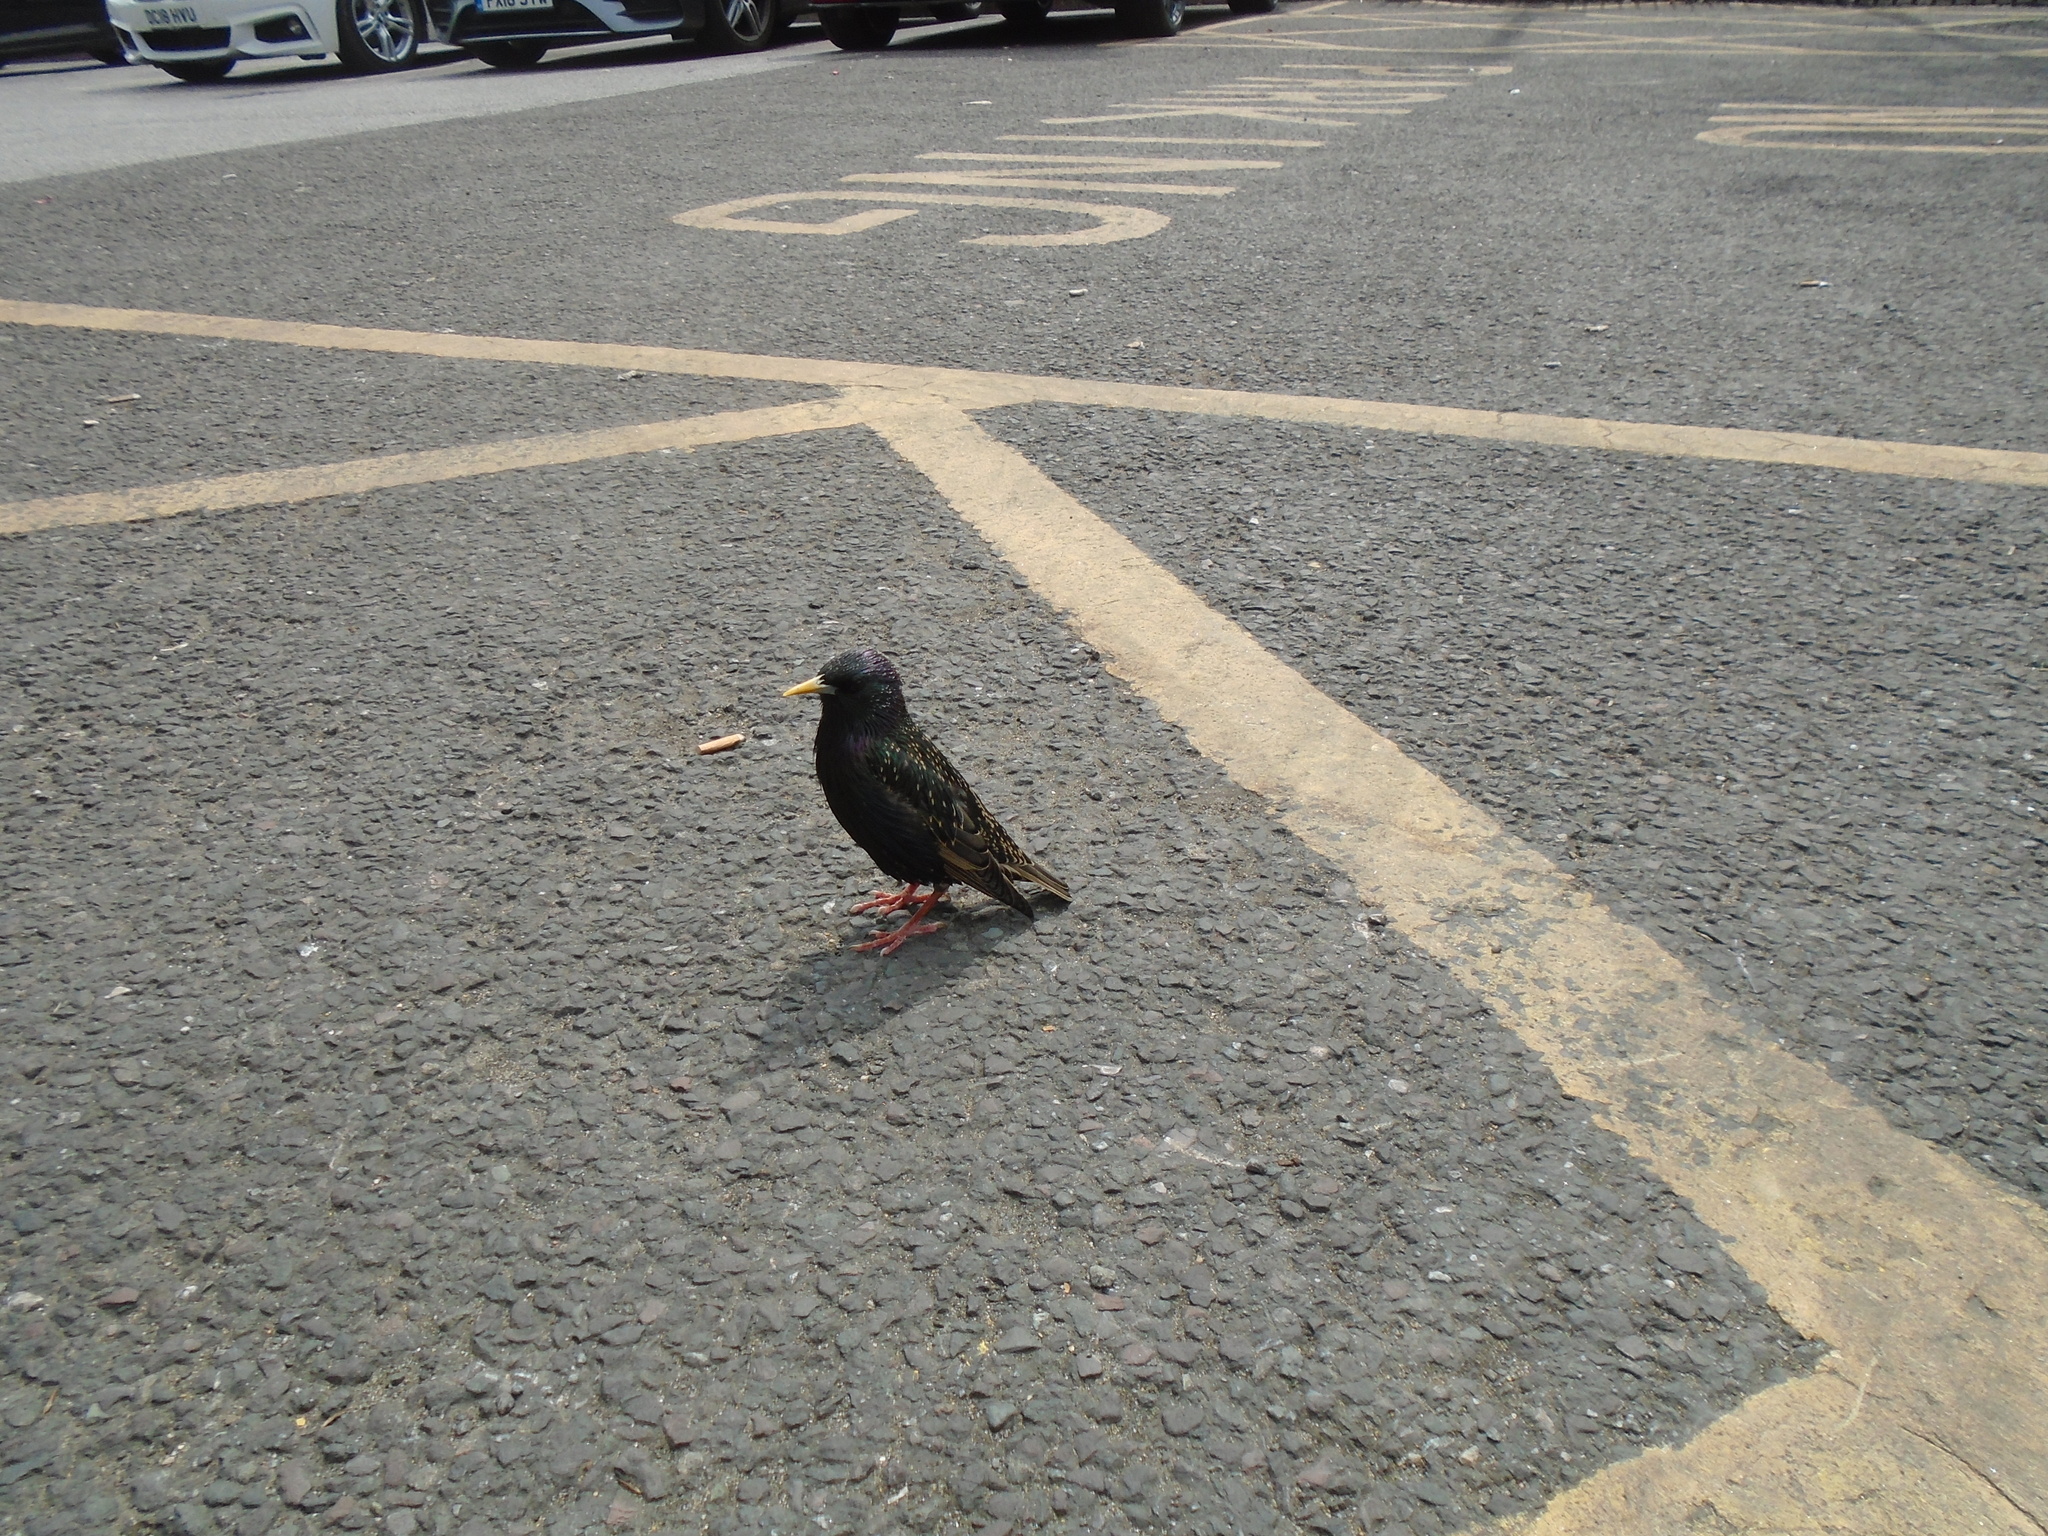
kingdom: Animalia
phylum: Chordata
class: Aves
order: Passeriformes
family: Sturnidae
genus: Sturnus
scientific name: Sturnus vulgaris
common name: Common starling
